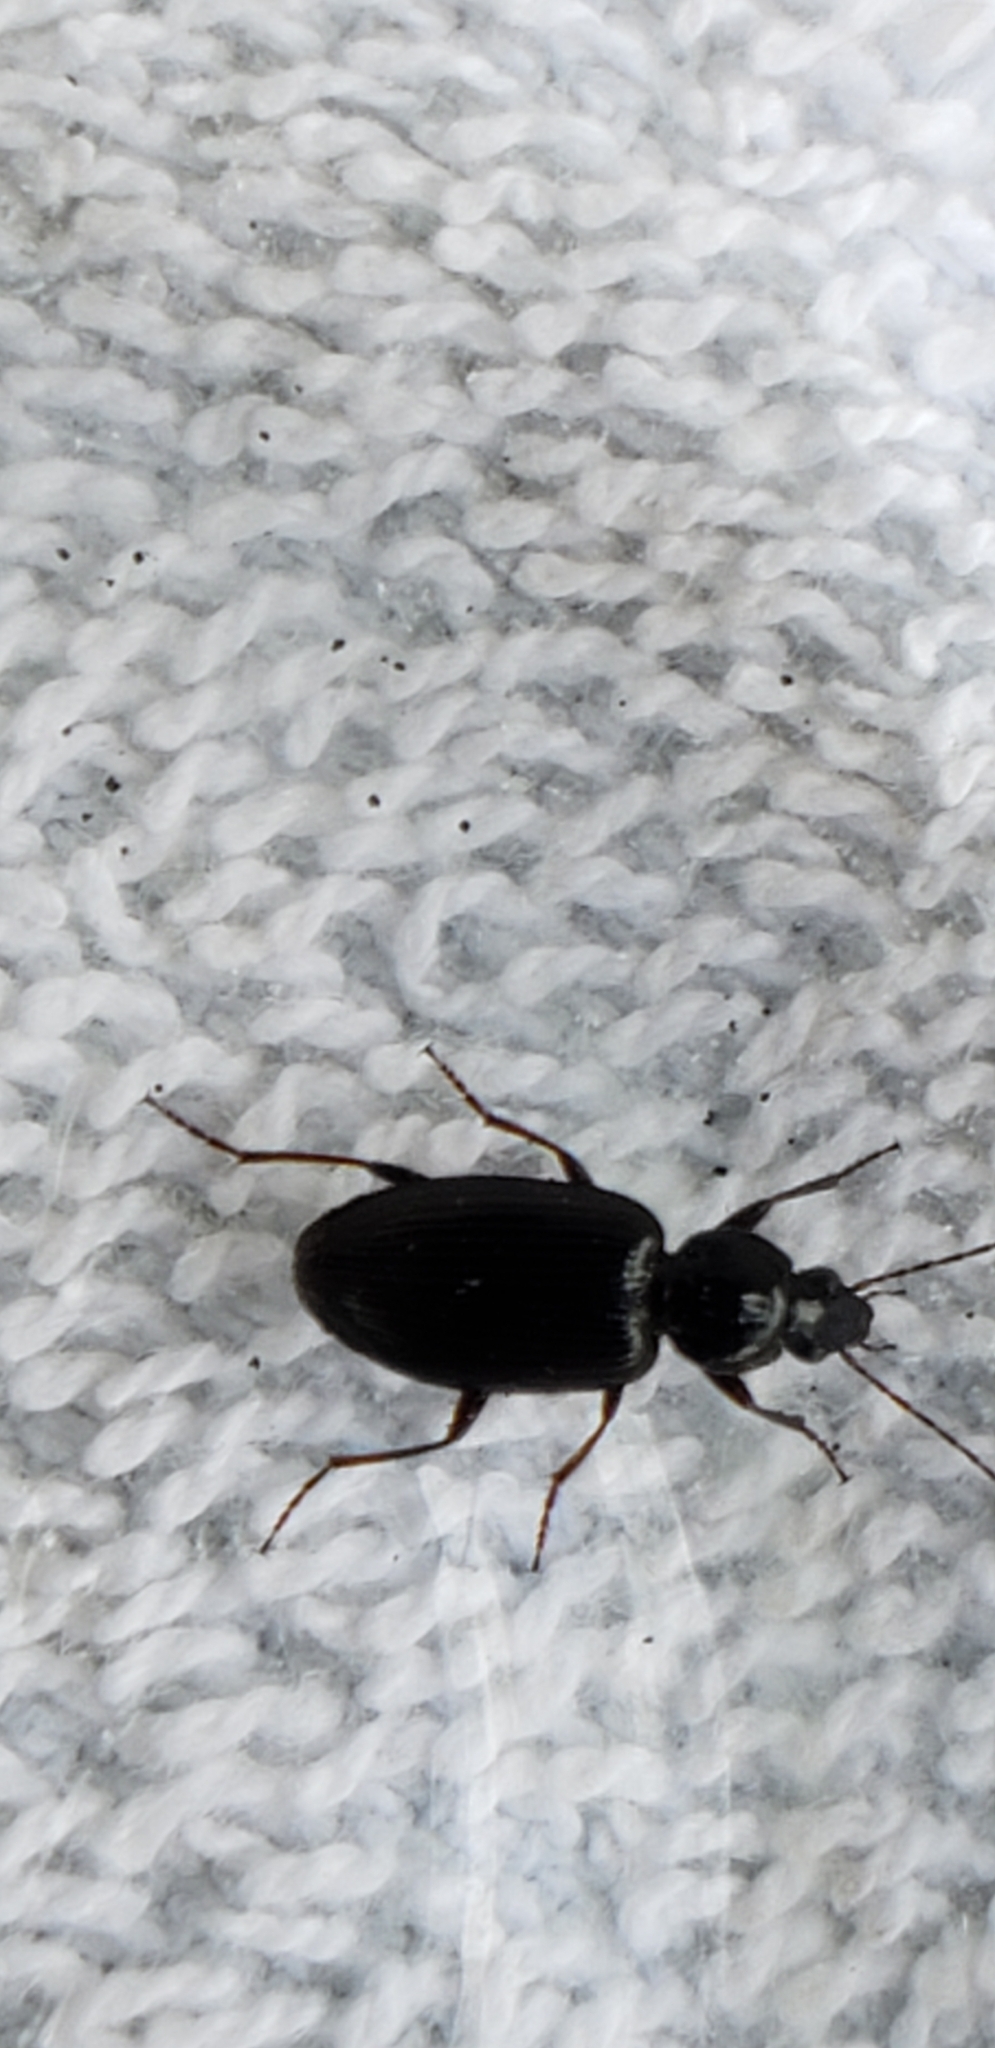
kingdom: Animalia
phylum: Arthropoda
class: Insecta
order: Coleoptera
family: Carabidae
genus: Agonum
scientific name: Agonum punctiforme
